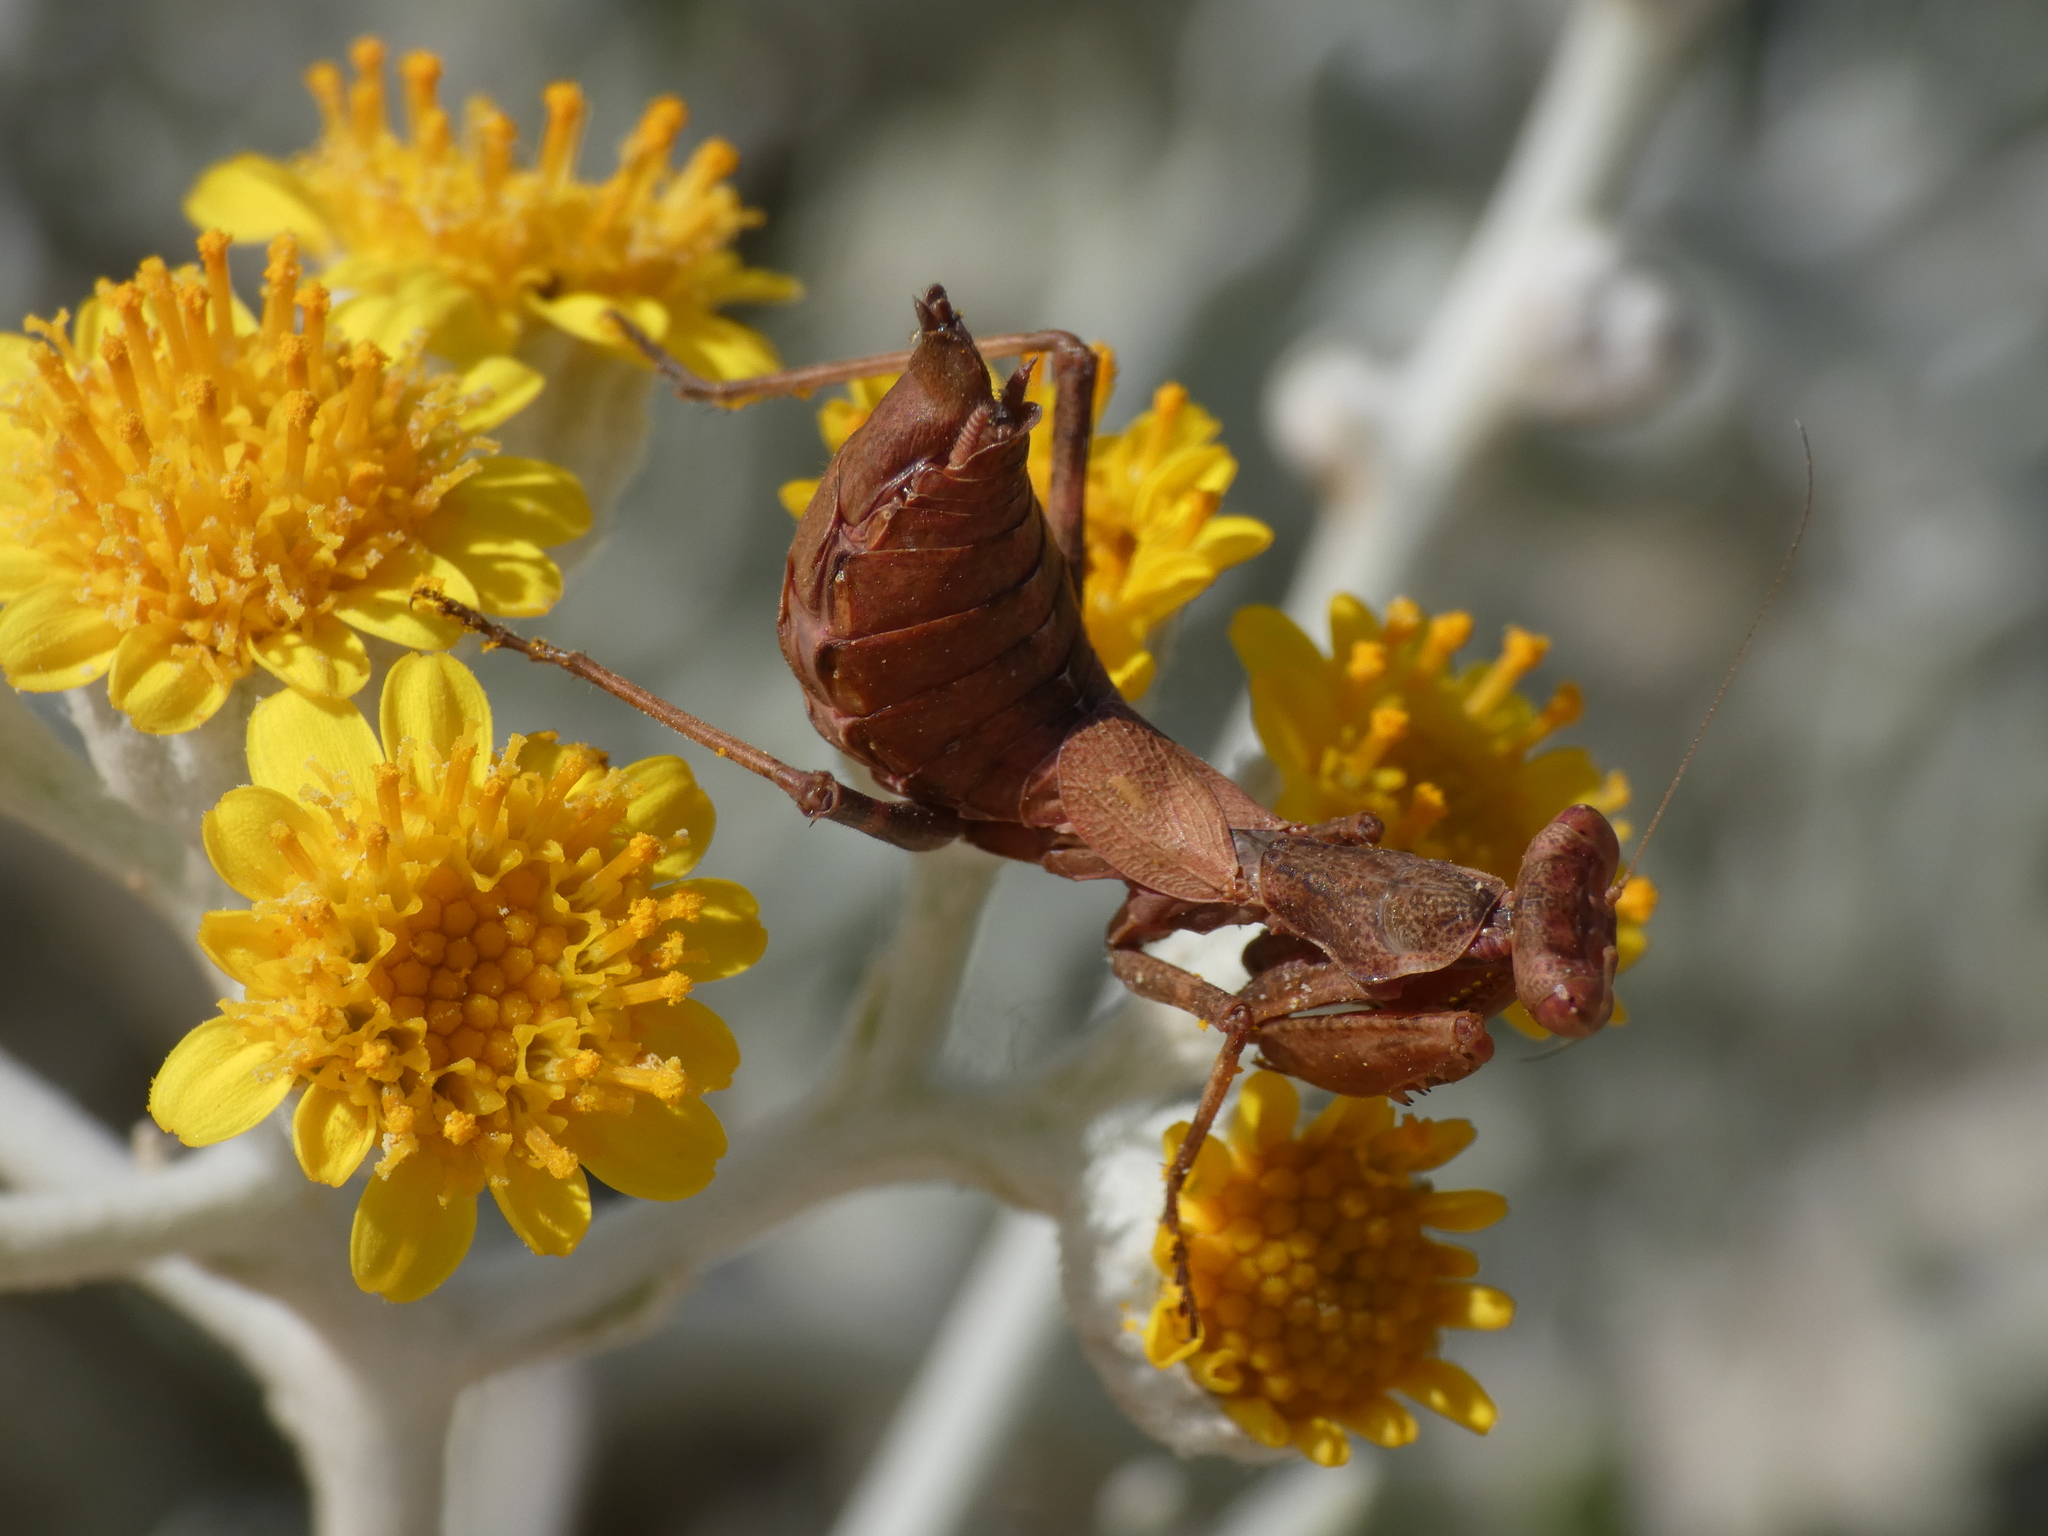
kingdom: Animalia
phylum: Arthropoda
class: Insecta
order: Mantodea
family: Amelidae
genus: Ameles
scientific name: Ameles spallanzania
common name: European dwarf mantis
